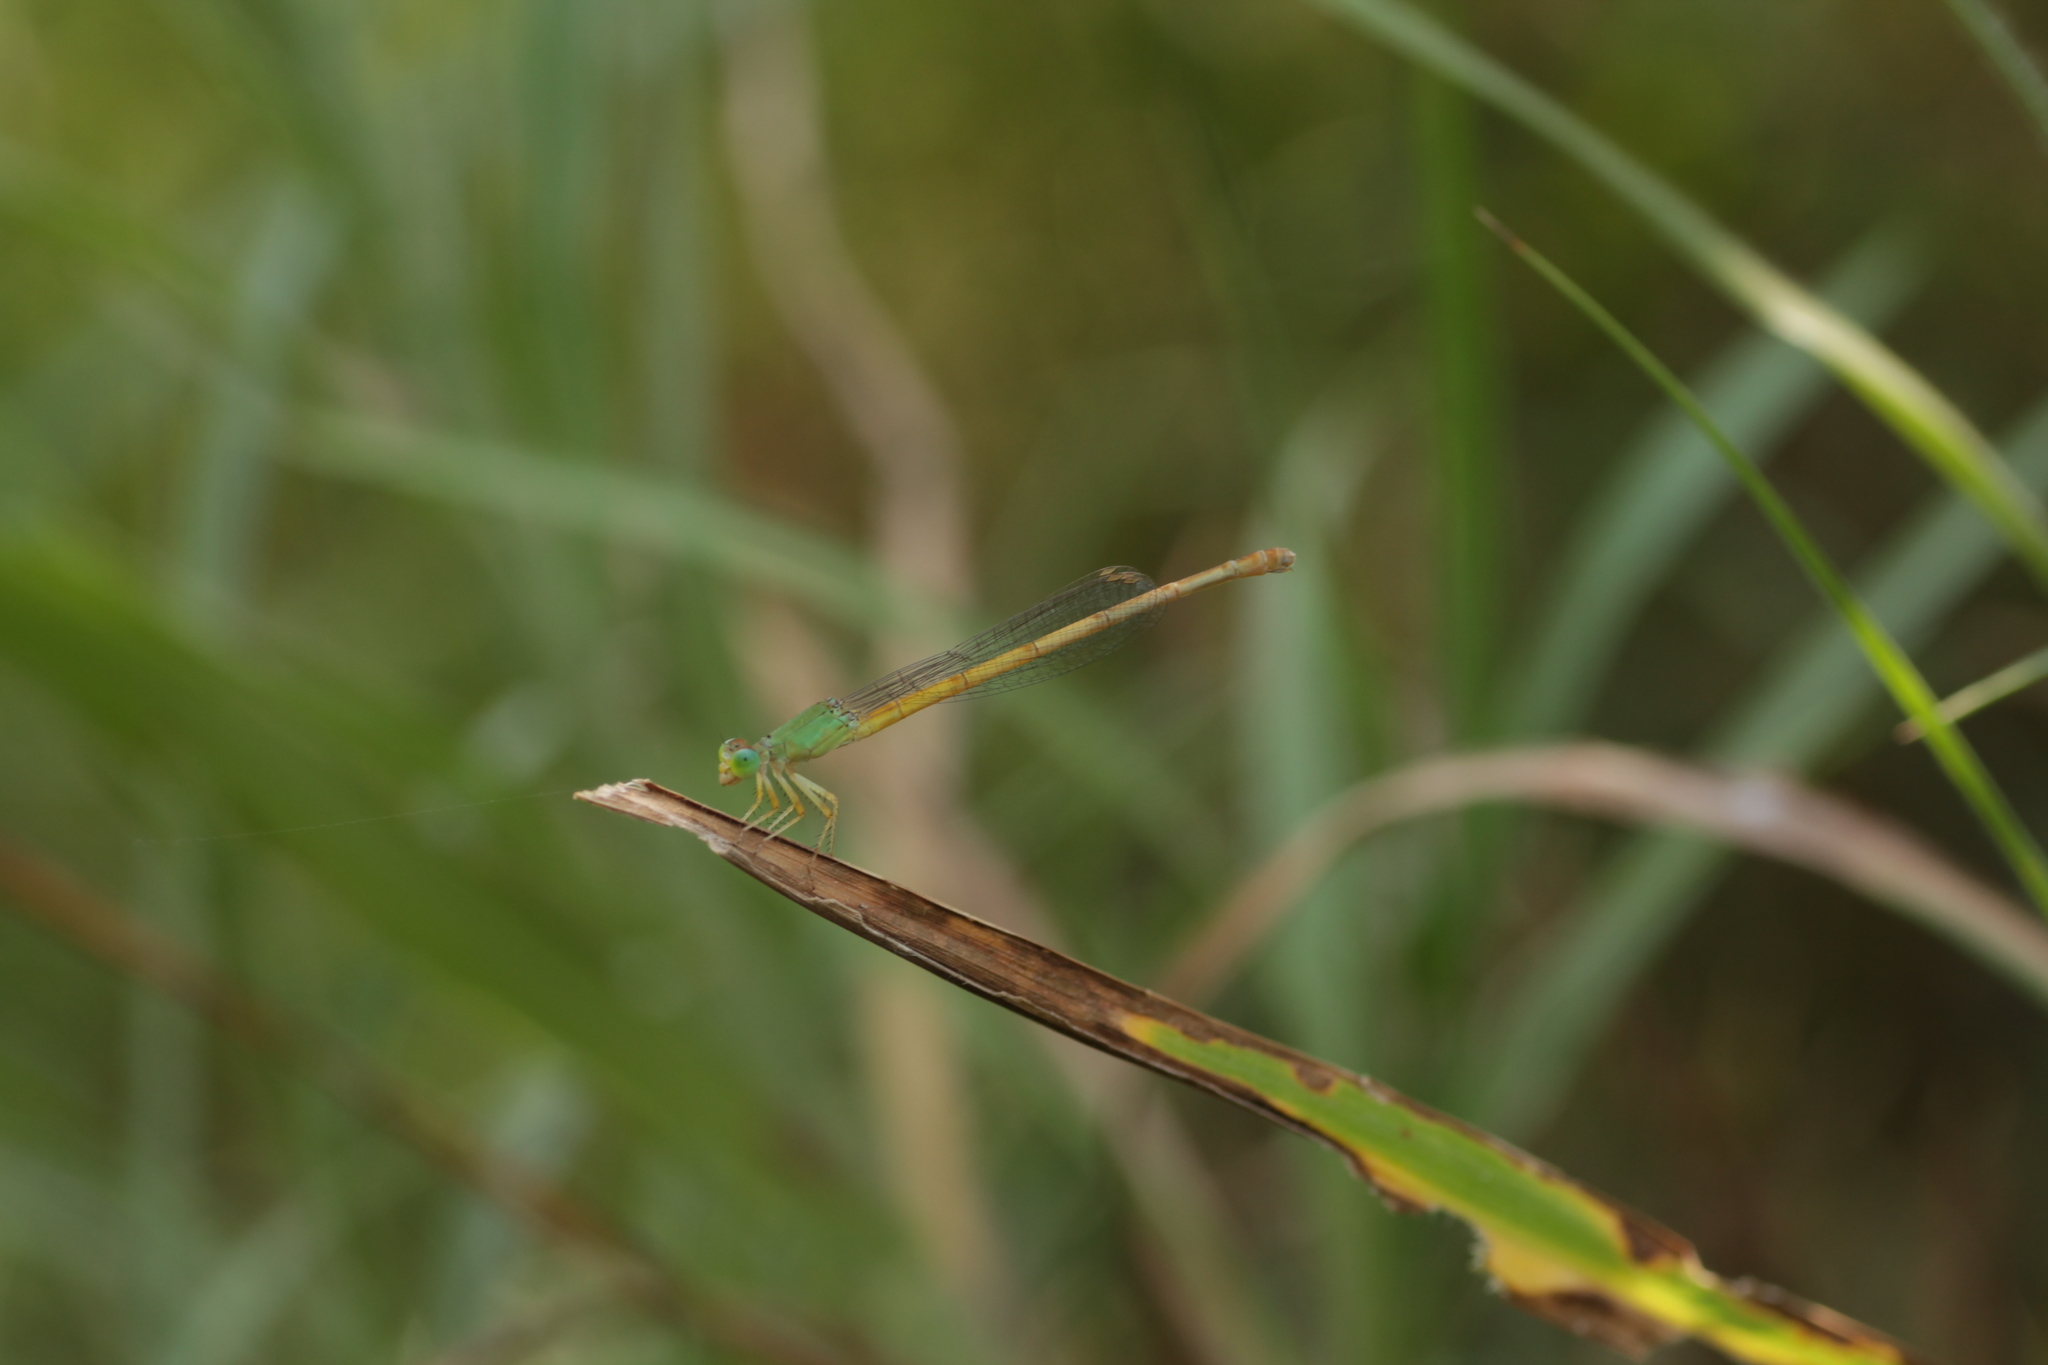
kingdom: Animalia
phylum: Arthropoda
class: Insecta
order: Odonata
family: Coenagrionidae
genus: Ceriagrion
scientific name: Ceriagrion coromandelianum
